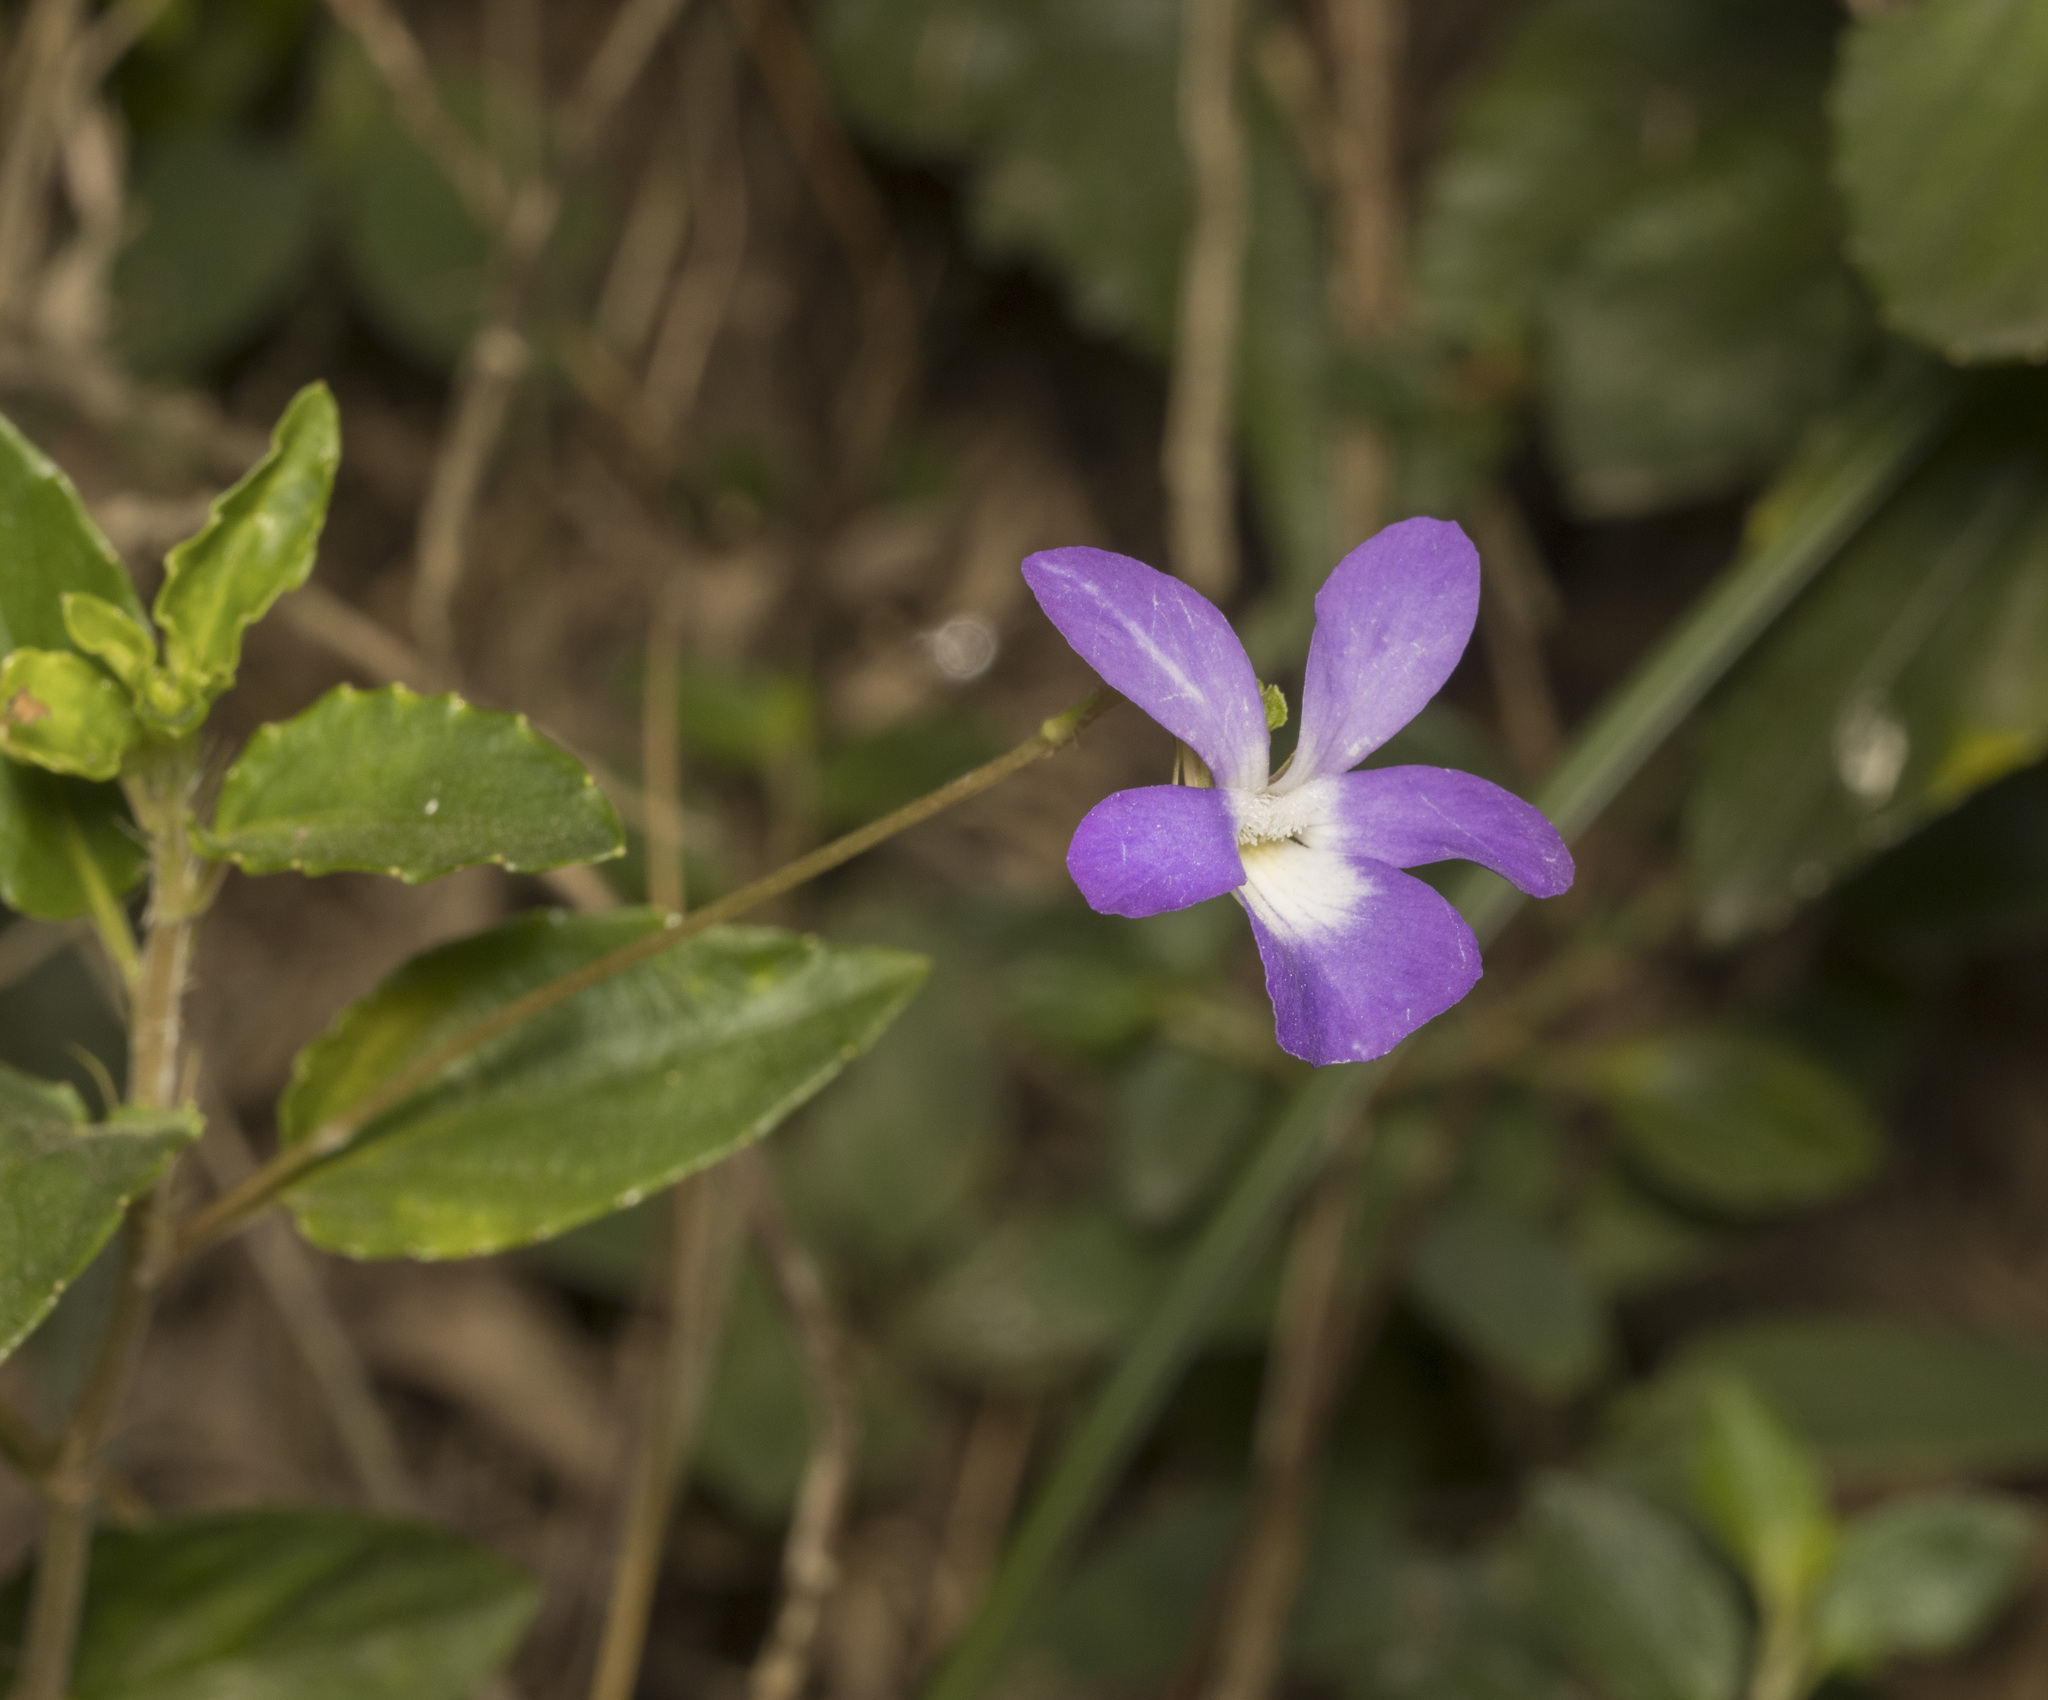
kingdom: Plantae
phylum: Tracheophyta
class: Magnoliopsida
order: Malpighiales
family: Violaceae
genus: Viola
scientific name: Viola portalesia
